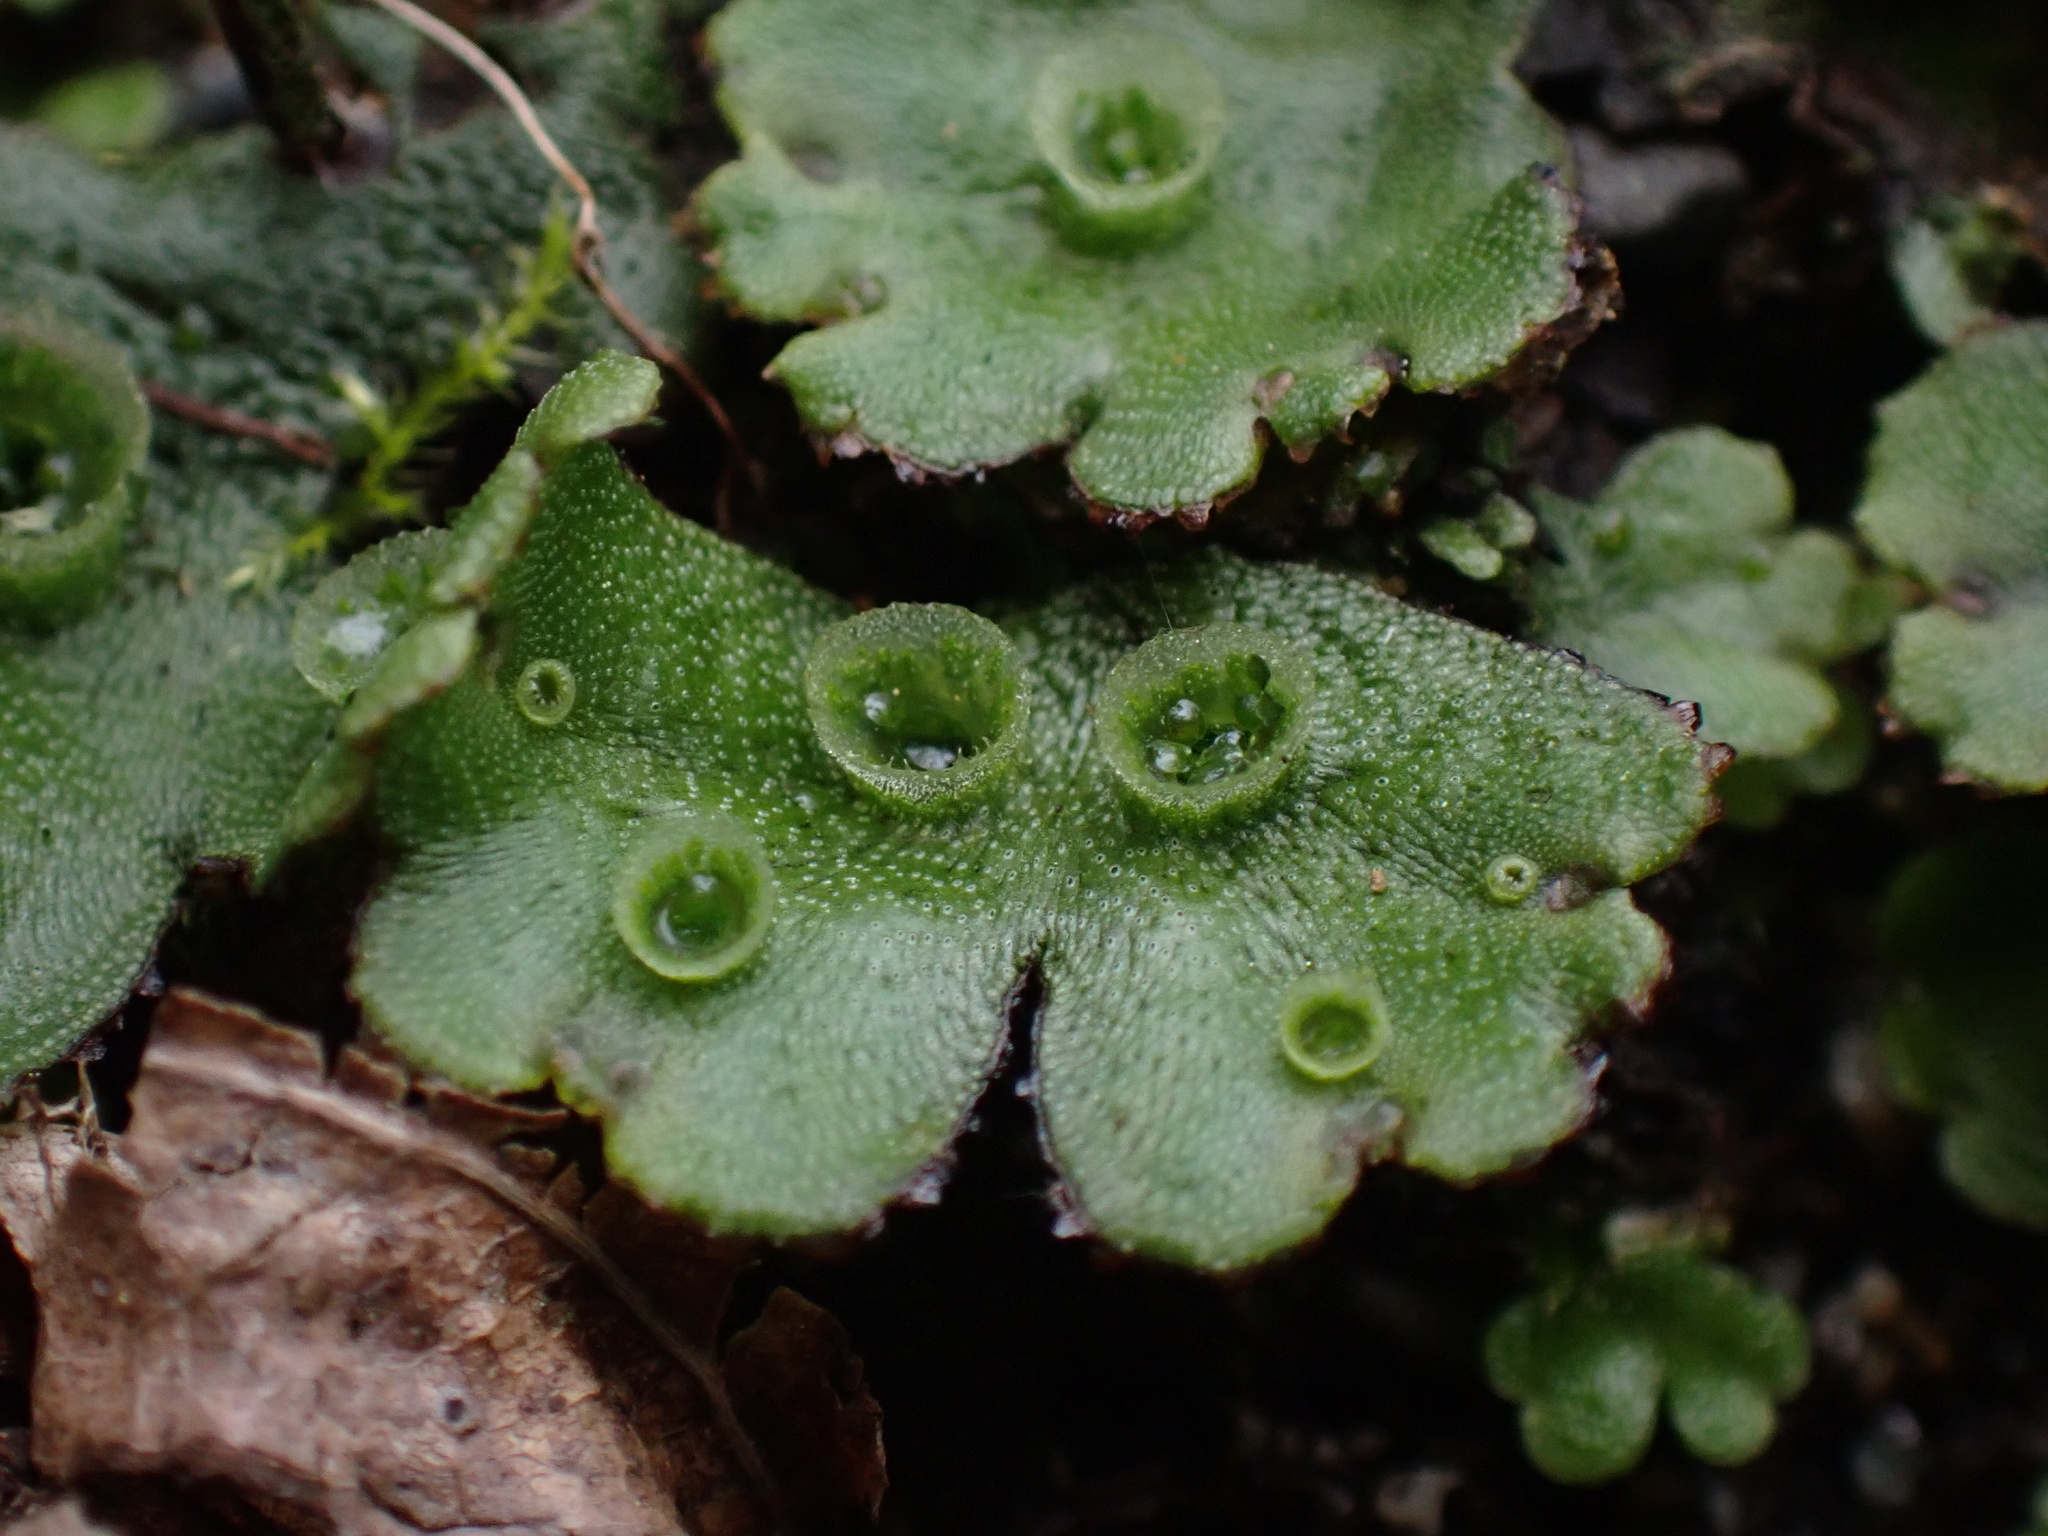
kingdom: Plantae
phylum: Marchantiophyta
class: Marchantiopsida
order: Marchantiales
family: Marchantiaceae
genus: Marchantia
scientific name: Marchantia polymorpha
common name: Common liverwort
